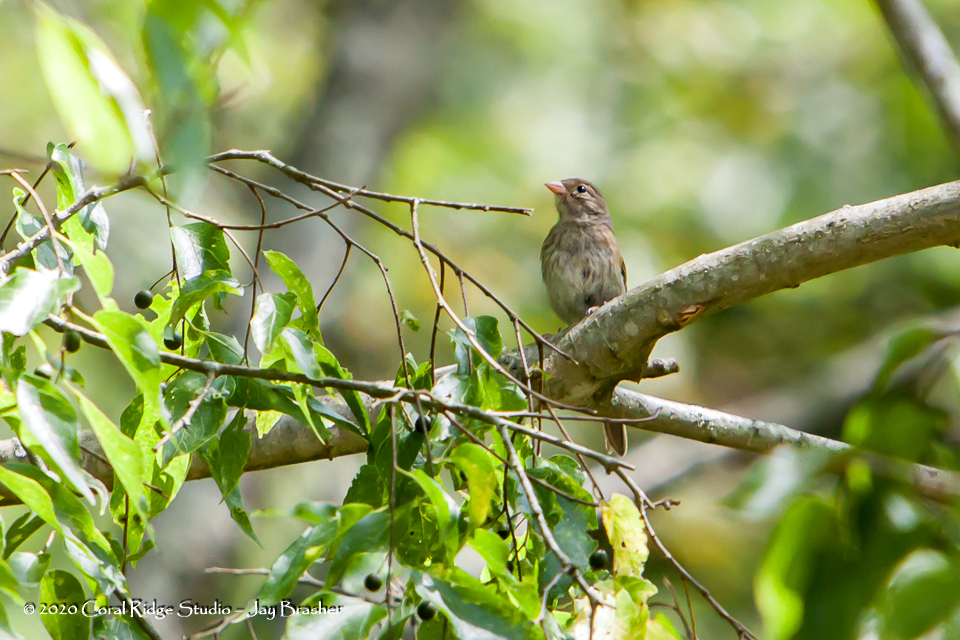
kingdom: Animalia
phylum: Chordata
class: Aves
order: Passeriformes
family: Passerellidae
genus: Spizella
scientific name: Spizella pusilla
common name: Field sparrow
